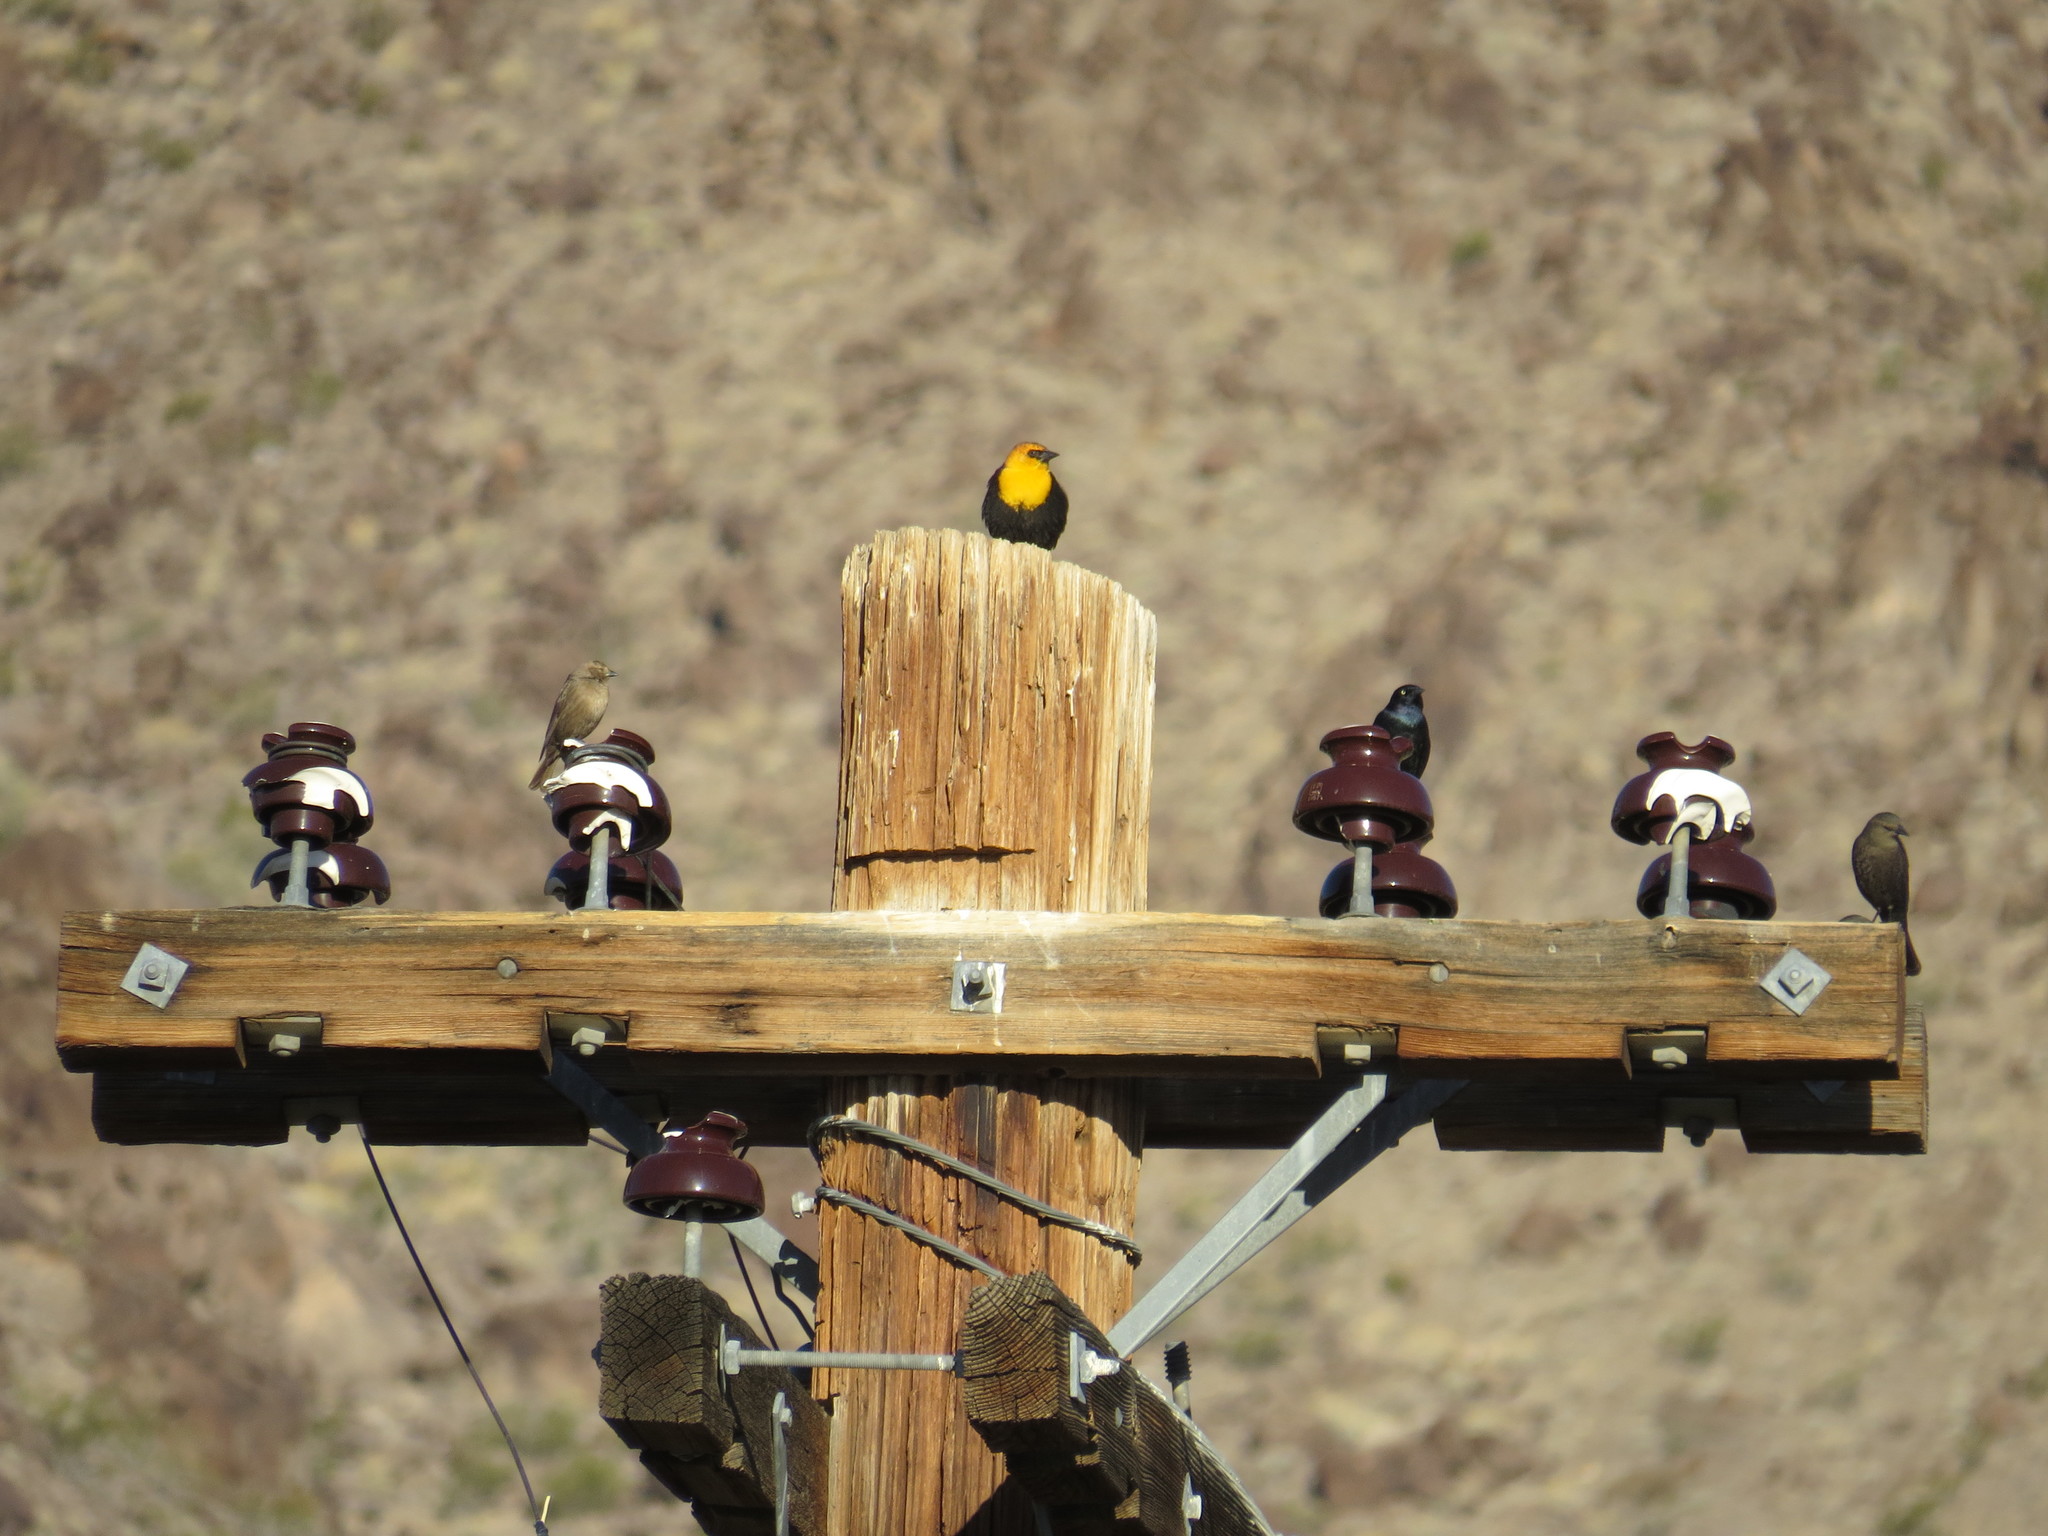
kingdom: Animalia
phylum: Chordata
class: Aves
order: Passeriformes
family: Icteridae
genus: Xanthocephalus
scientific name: Xanthocephalus xanthocephalus
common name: Yellow-headed blackbird
